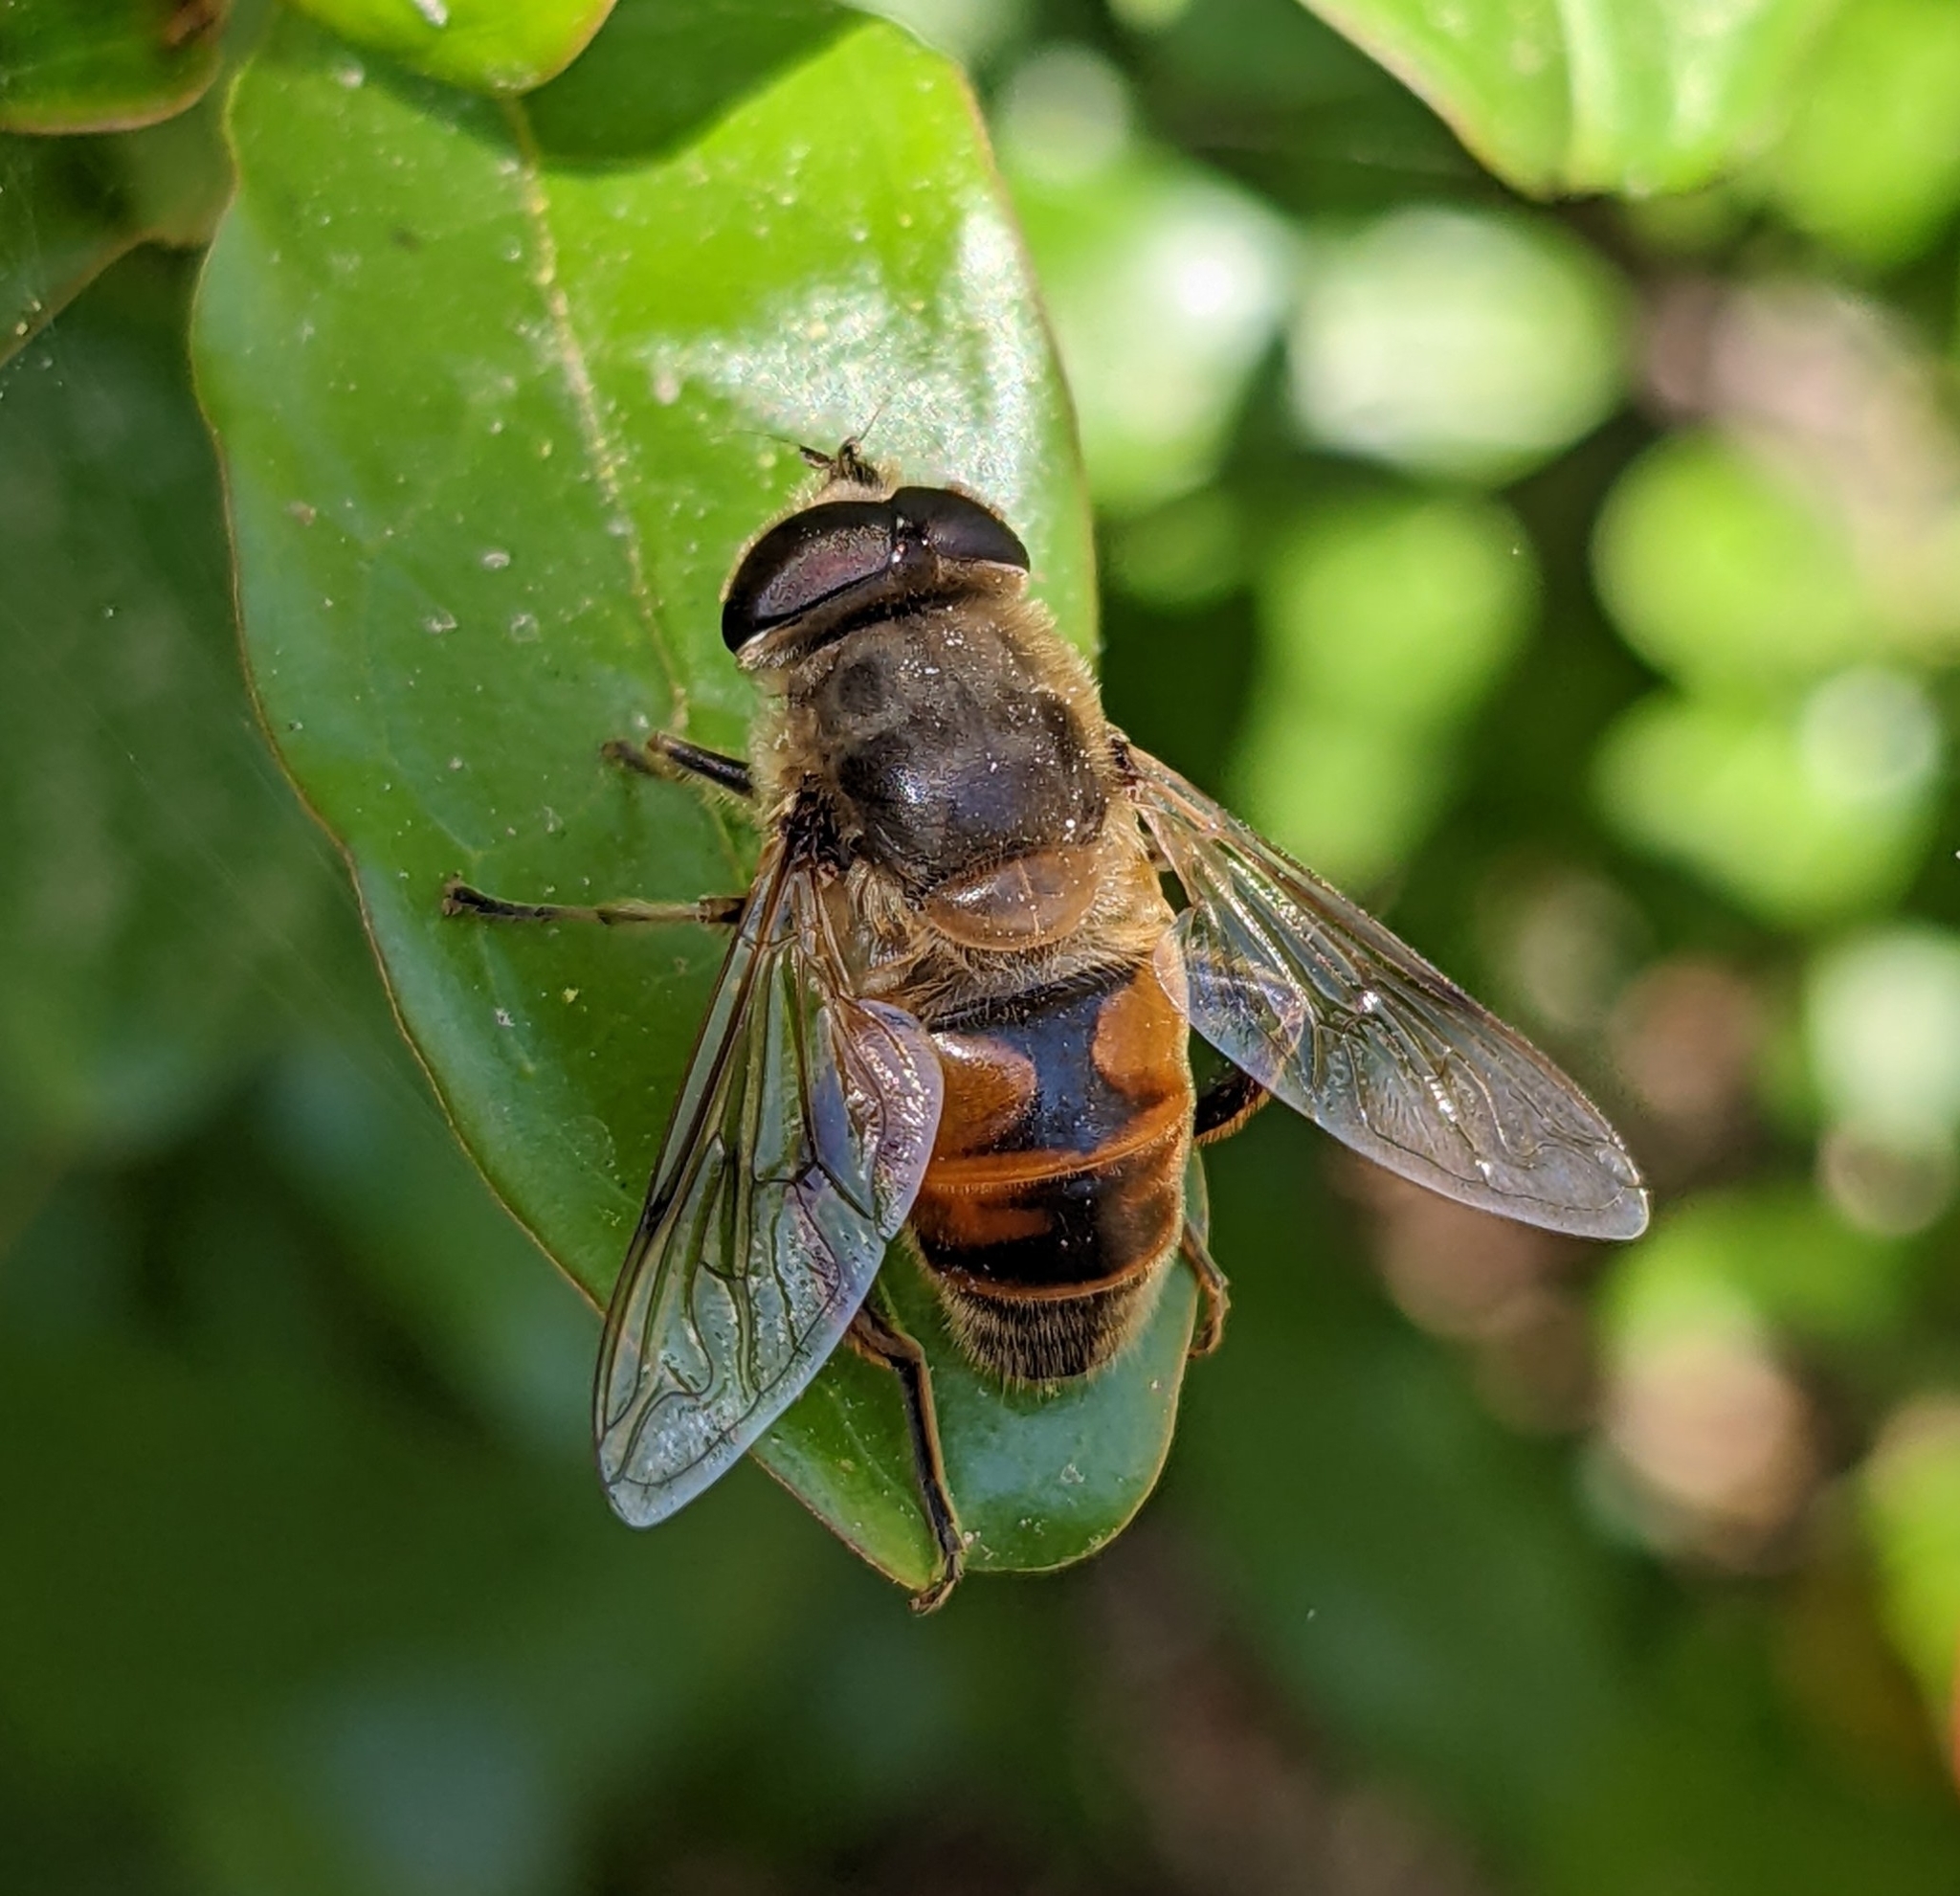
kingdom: Animalia
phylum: Arthropoda
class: Insecta
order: Diptera
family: Syrphidae
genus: Eristalis
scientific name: Eristalis tenax
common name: Drone fly
